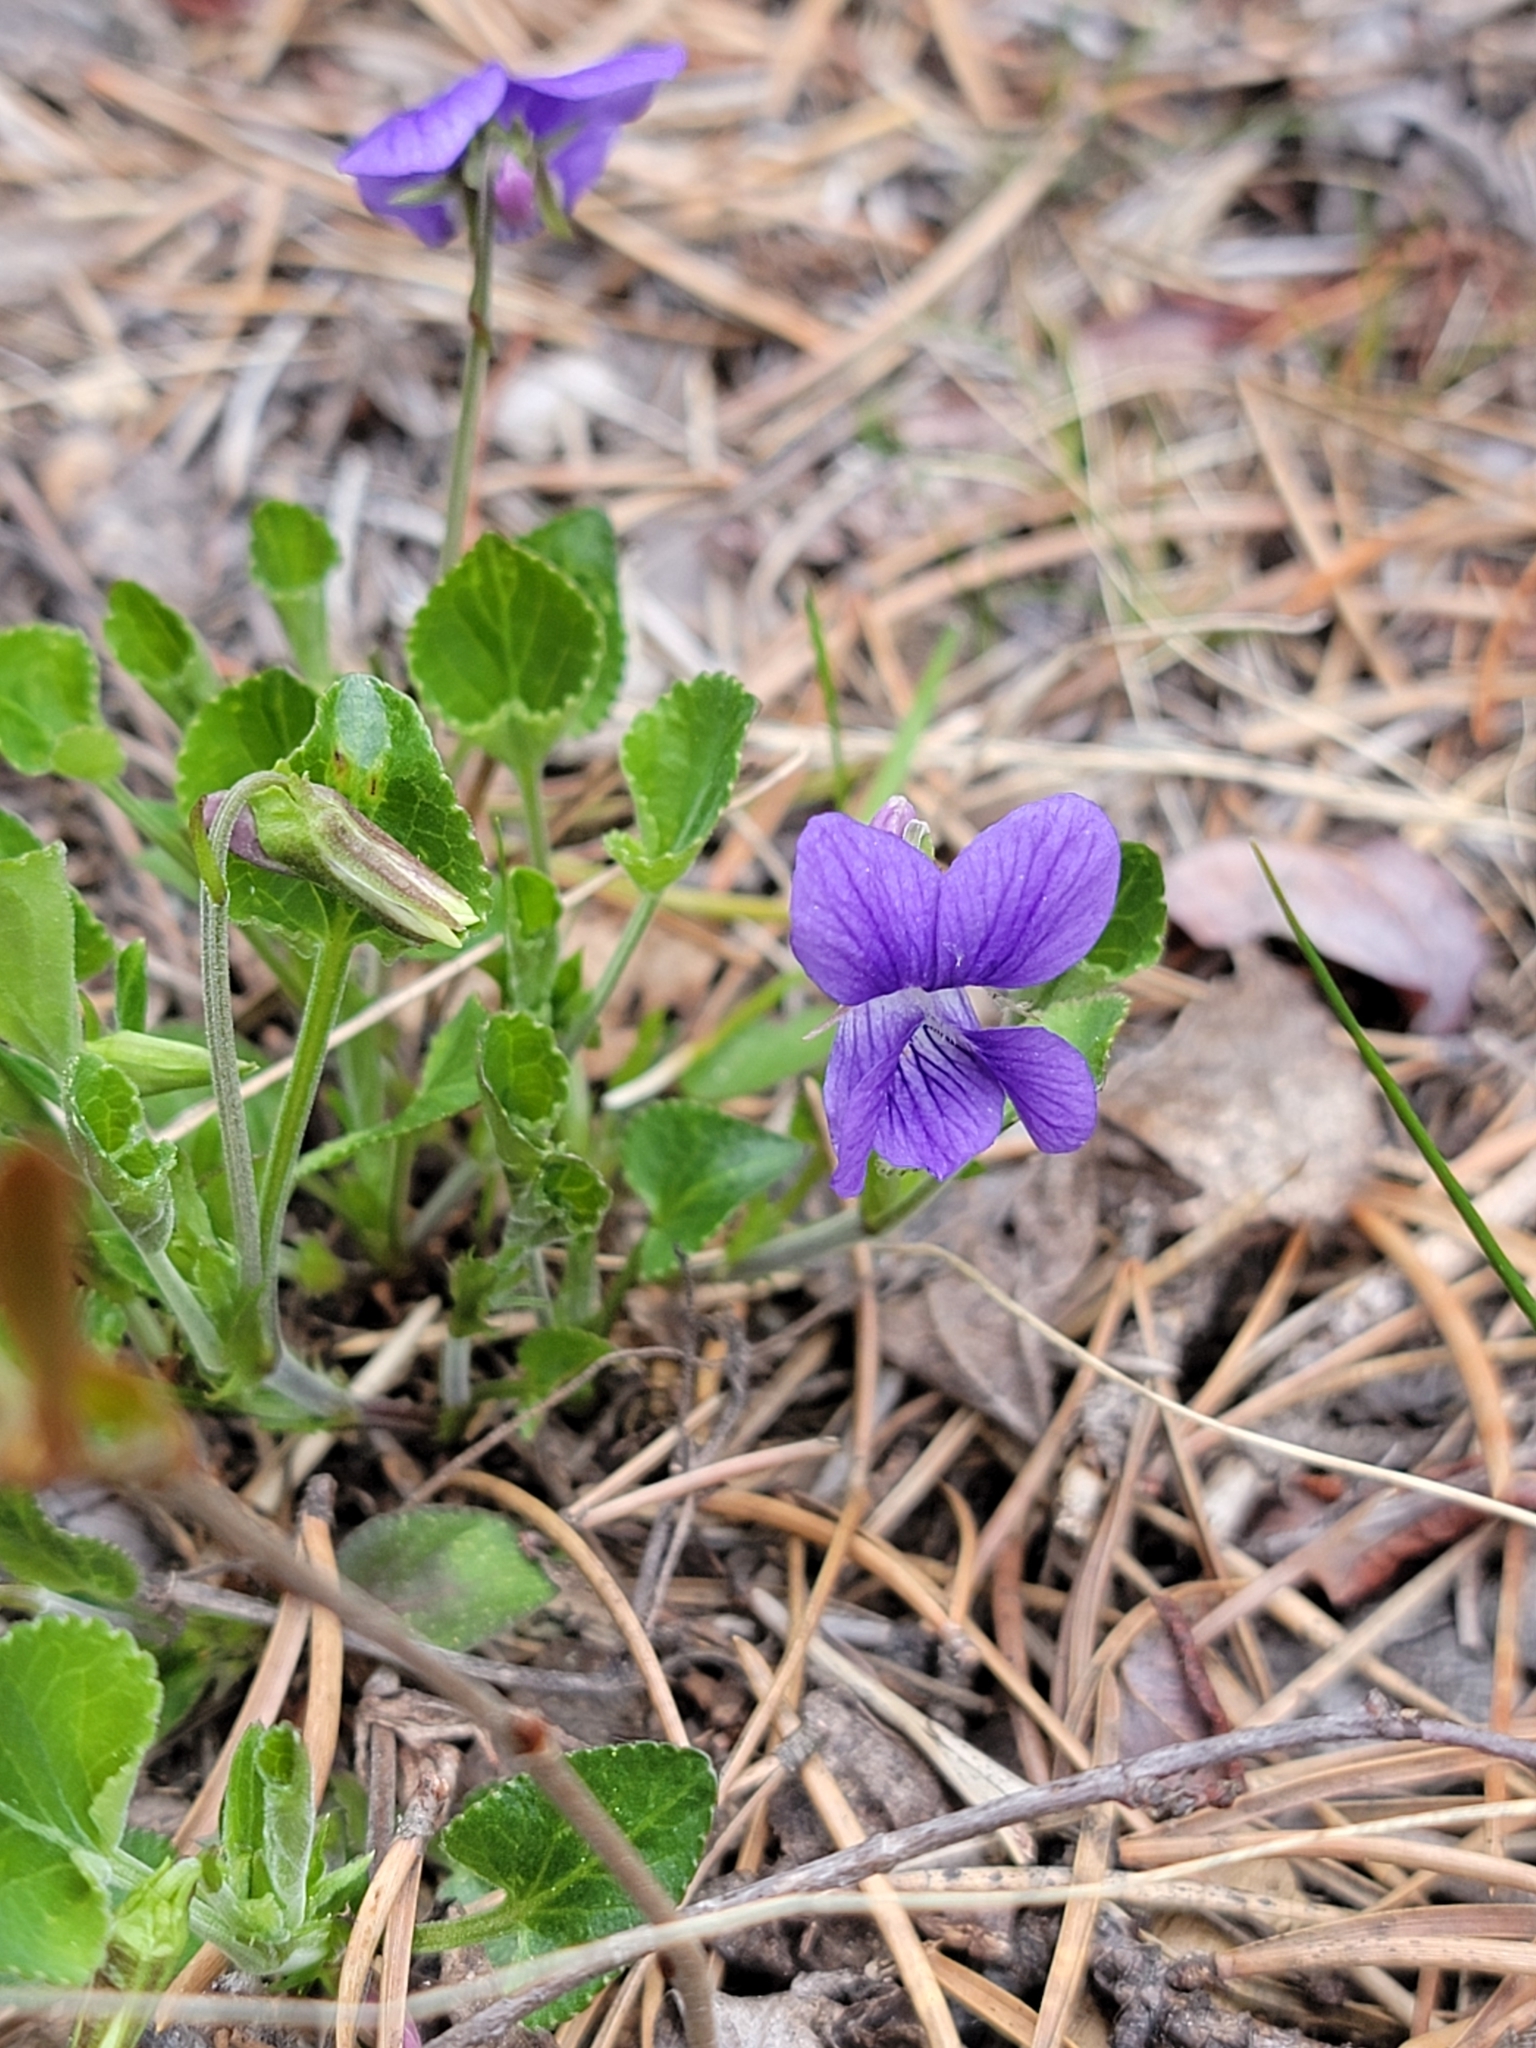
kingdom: Plantae
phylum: Tracheophyta
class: Magnoliopsida
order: Malpighiales
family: Violaceae
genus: Viola
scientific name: Viola adunca
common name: Sand violet
